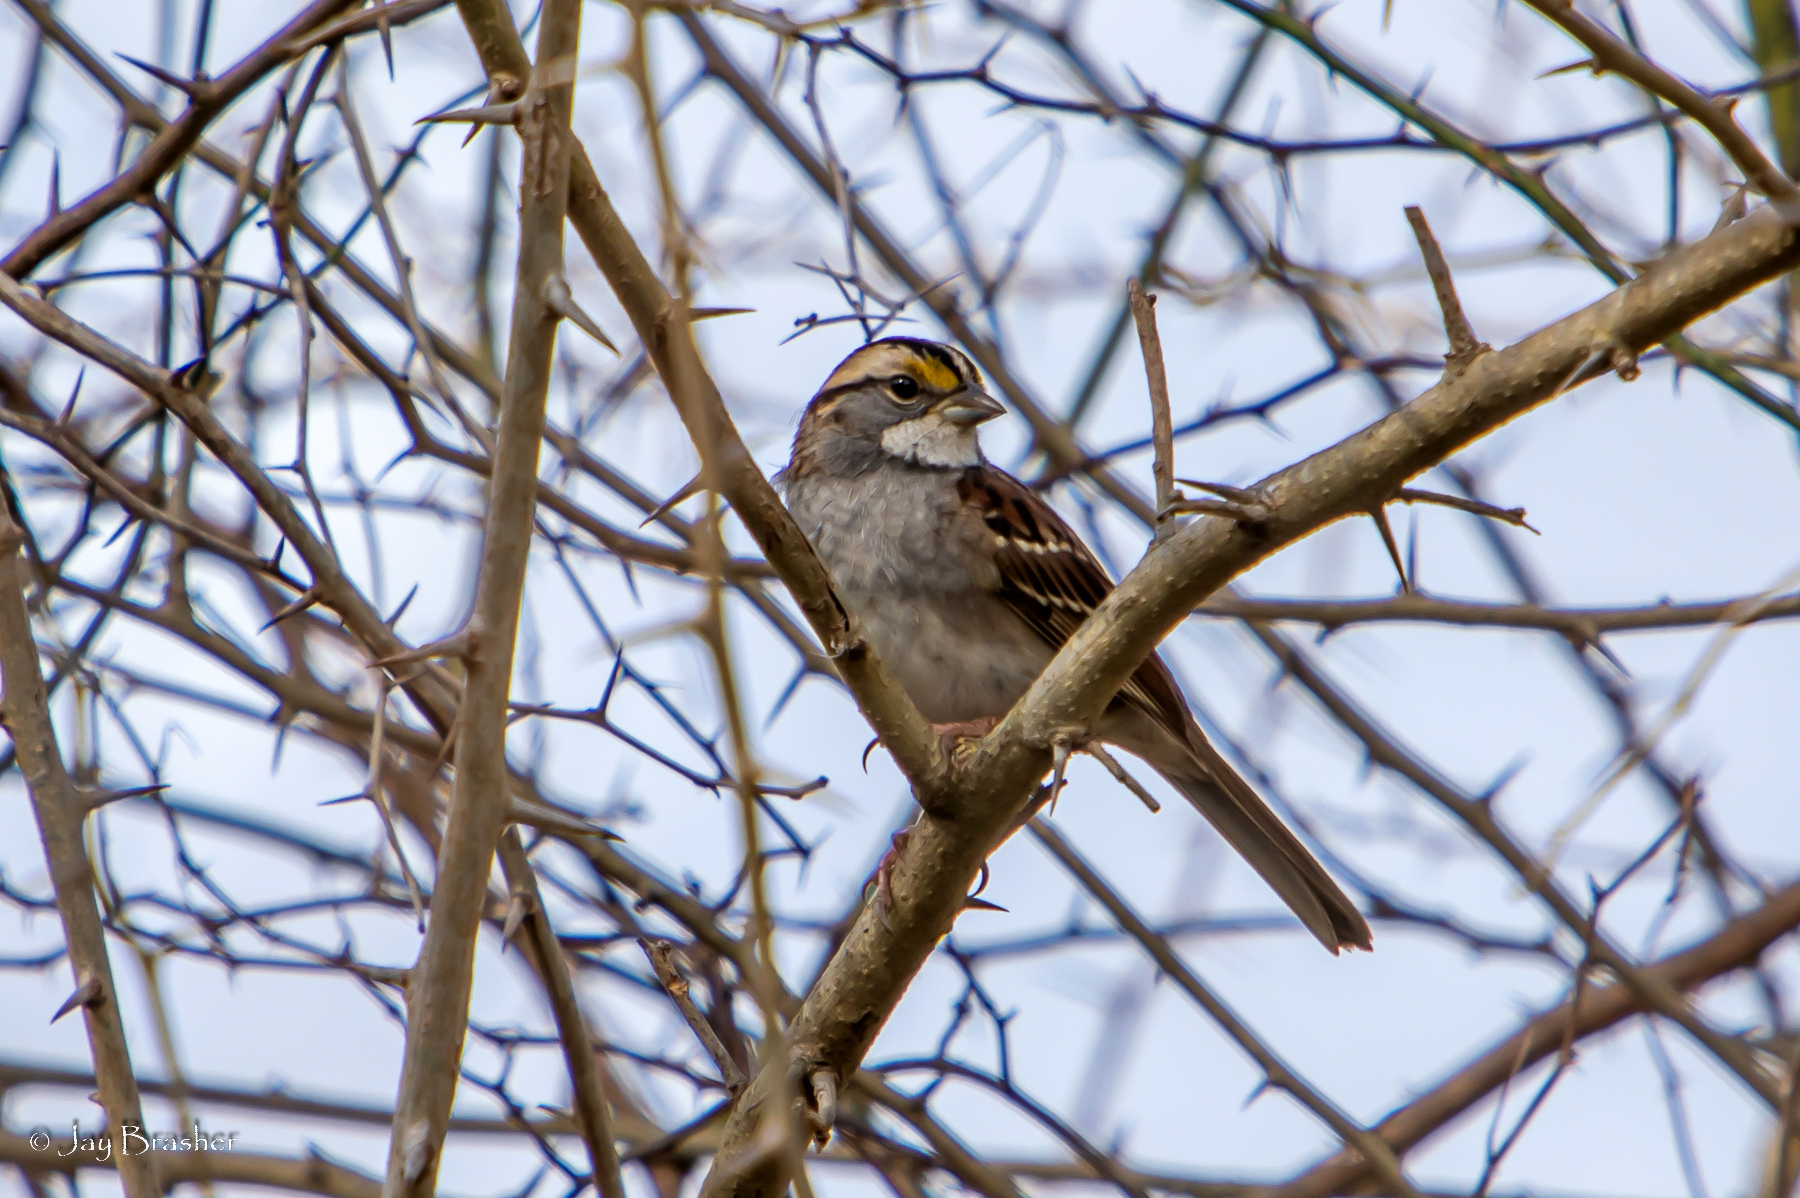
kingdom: Animalia
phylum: Chordata
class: Aves
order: Passeriformes
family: Passerellidae
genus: Zonotrichia
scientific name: Zonotrichia albicollis
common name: White-throated sparrow
